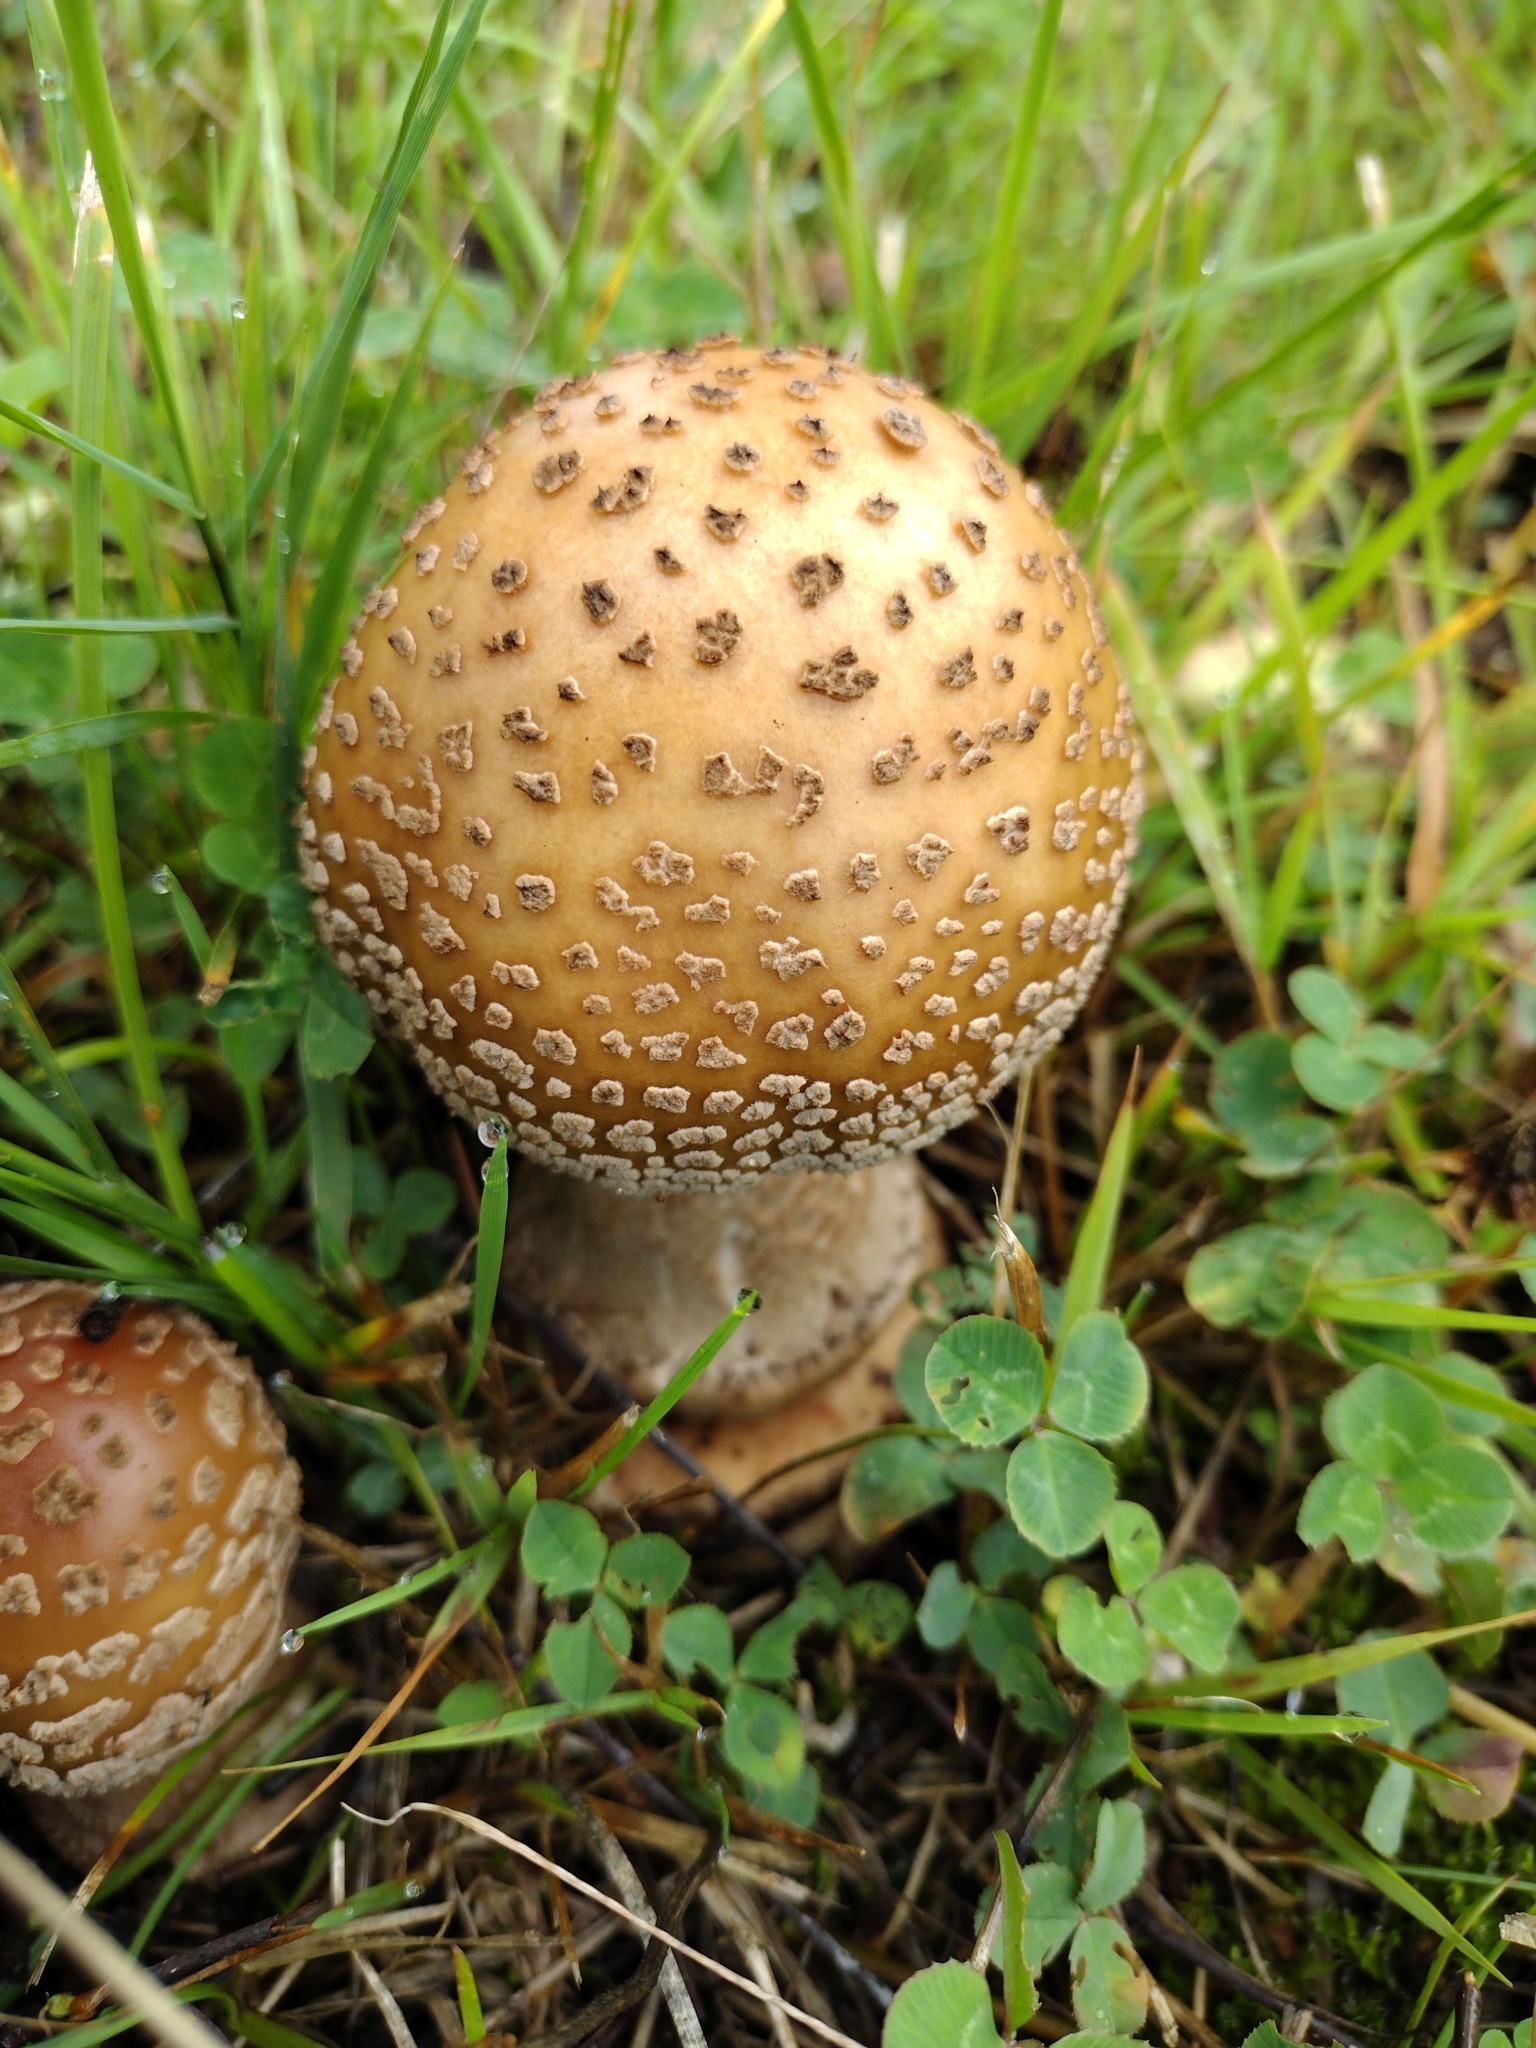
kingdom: Fungi
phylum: Basidiomycota
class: Agaricomycetes
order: Agaricales
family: Amanitaceae
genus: Amanita
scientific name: Amanita rubescens
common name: Blusher
